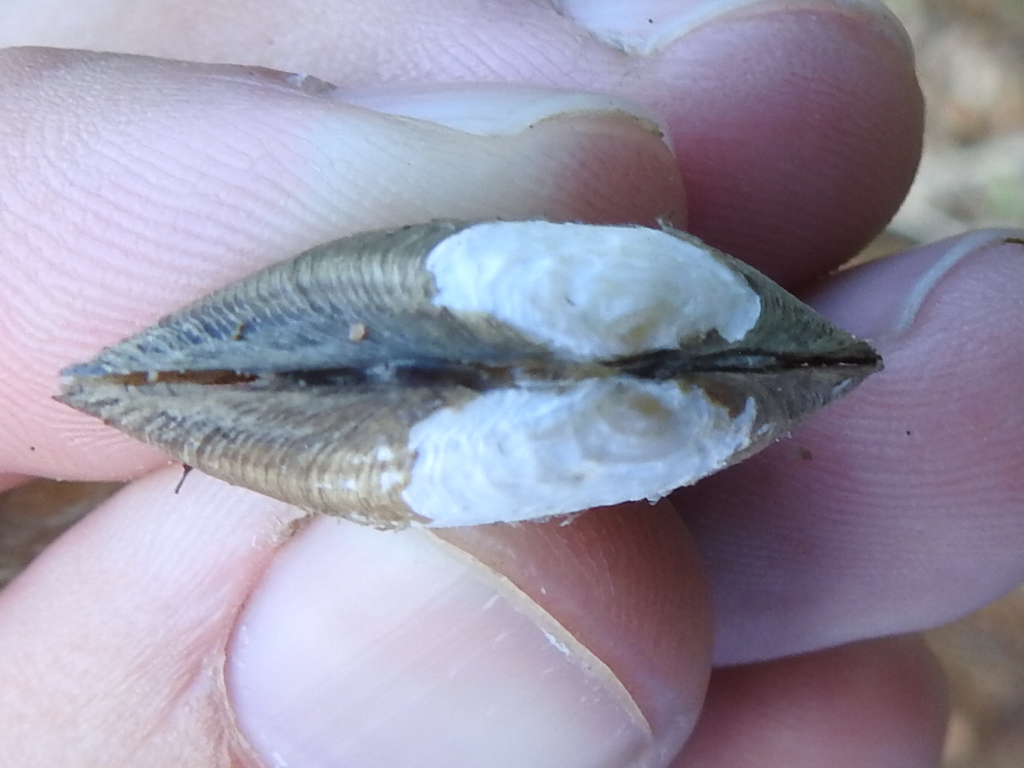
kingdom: Animalia
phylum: Mollusca
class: Bivalvia
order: Unionida
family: Unionidae
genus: Toxolasma
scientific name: Toxolasma parvum
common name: Lilliput
